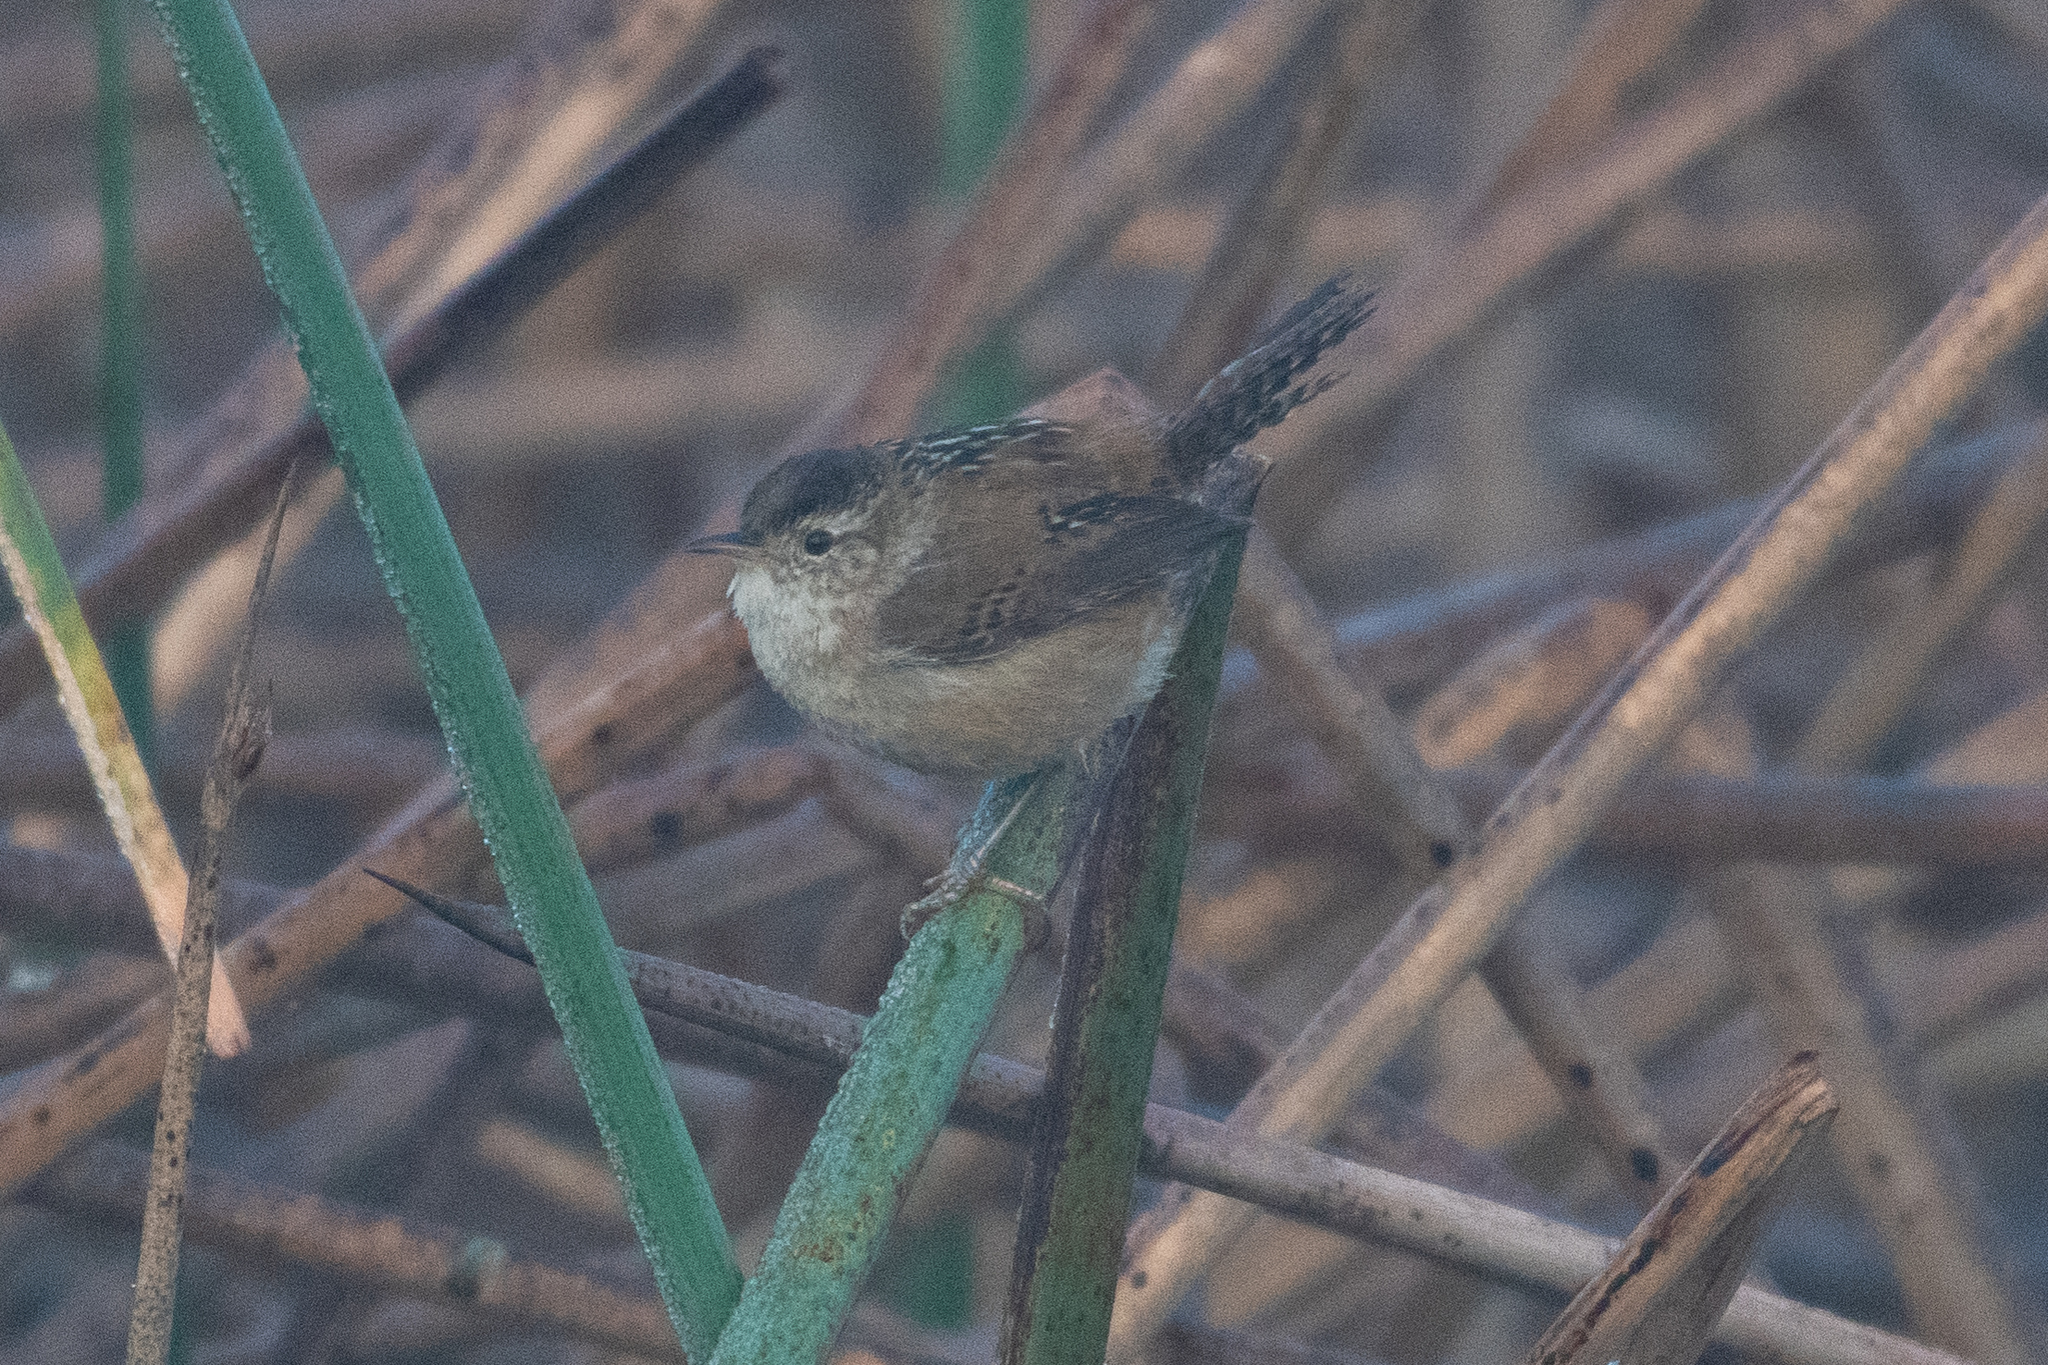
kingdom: Animalia
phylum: Chordata
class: Aves
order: Passeriformes
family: Troglodytidae
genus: Cistothorus
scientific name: Cistothorus palustris
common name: Marsh wren
